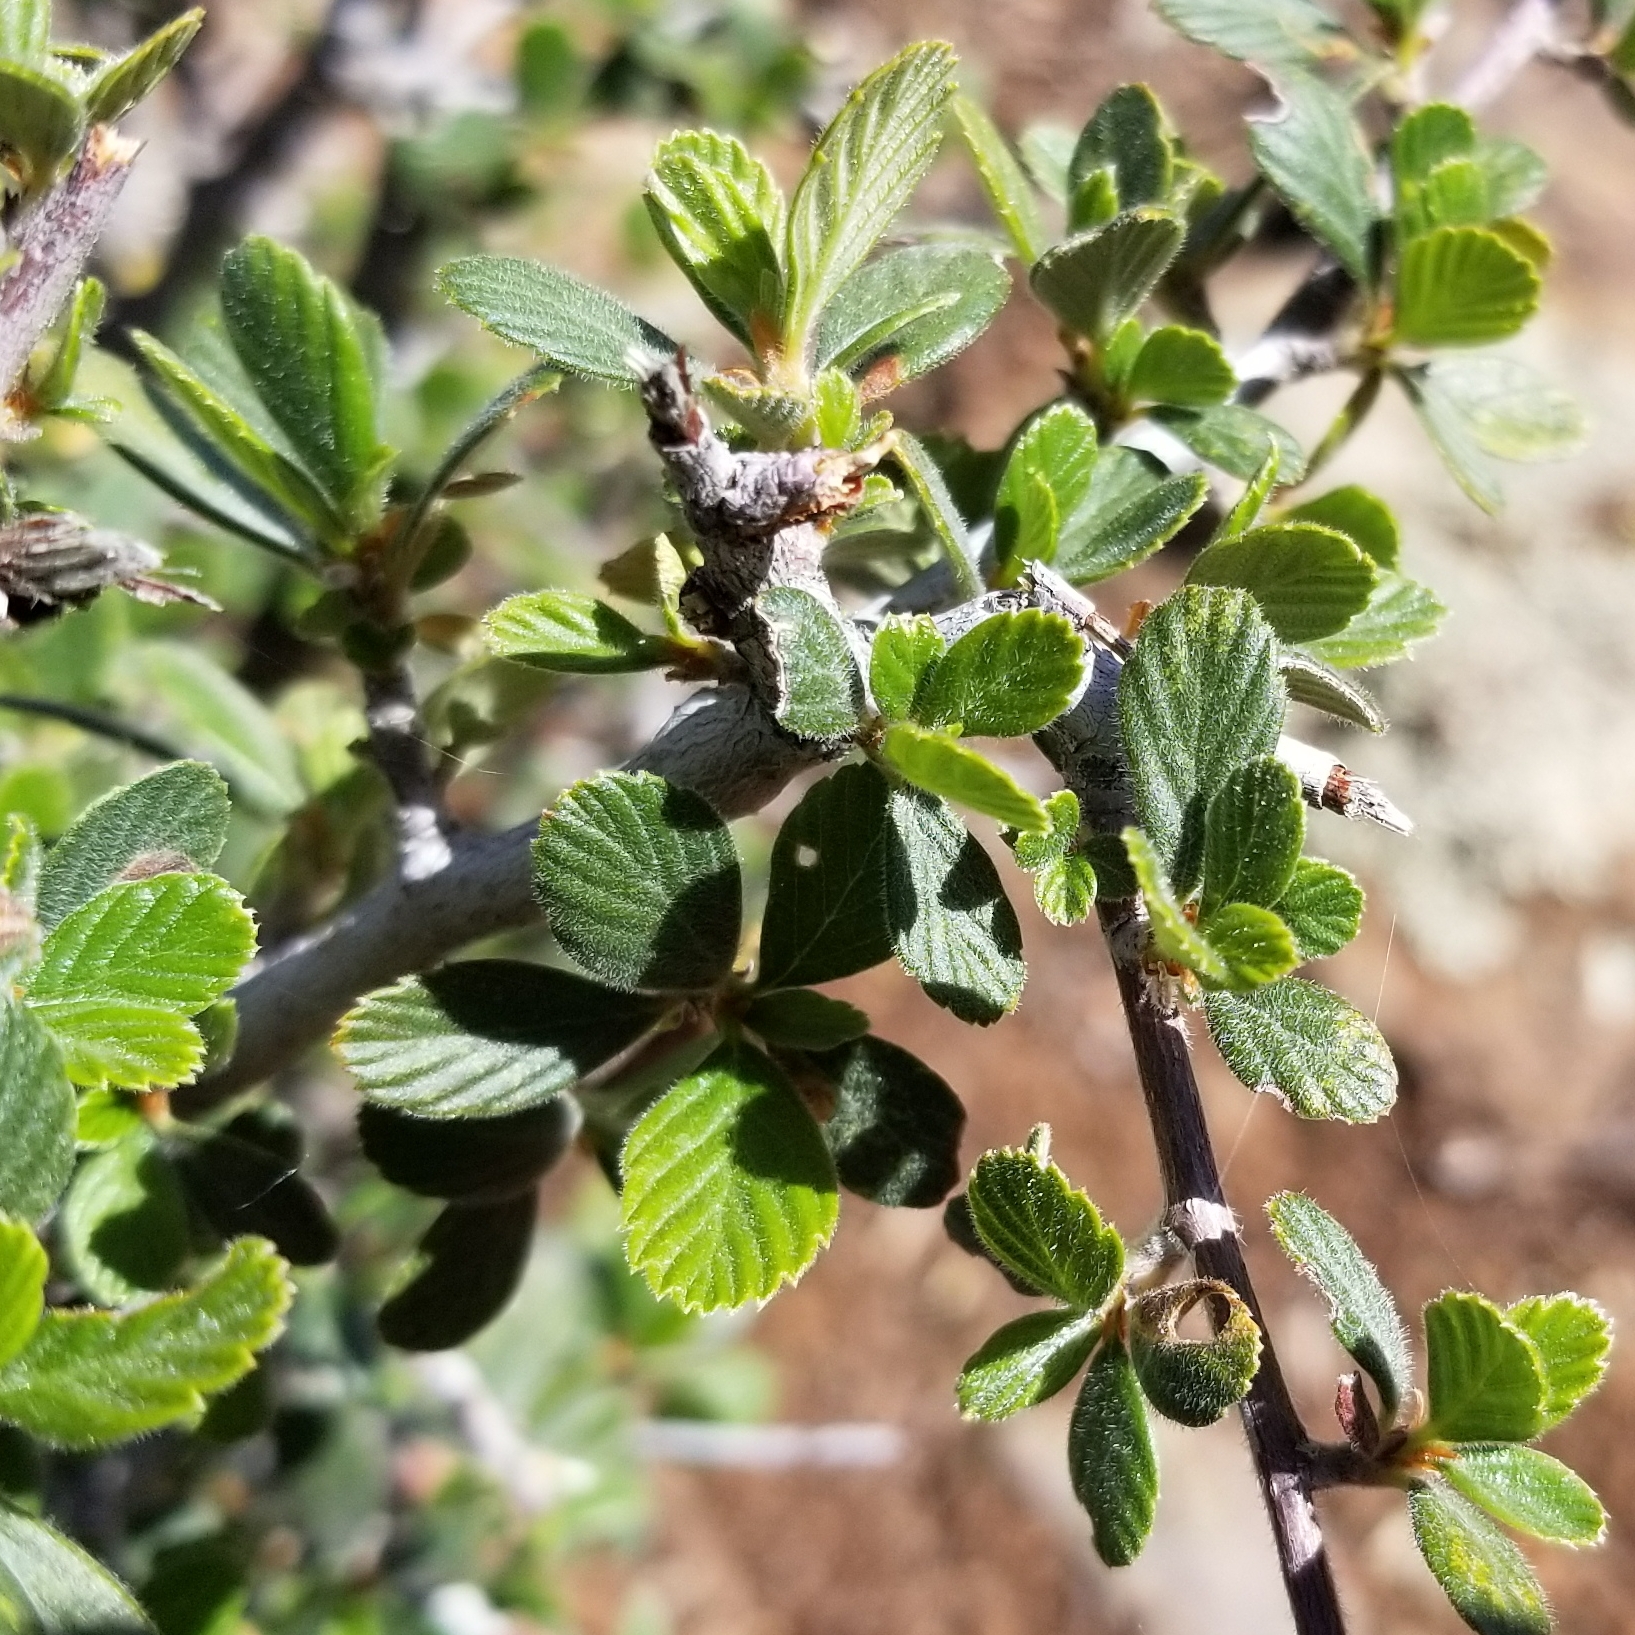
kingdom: Plantae
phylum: Tracheophyta
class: Magnoliopsida
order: Rosales
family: Rosaceae
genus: Cercocarpus
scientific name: Cercocarpus montanus
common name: Alder-leaf cercocarpus
